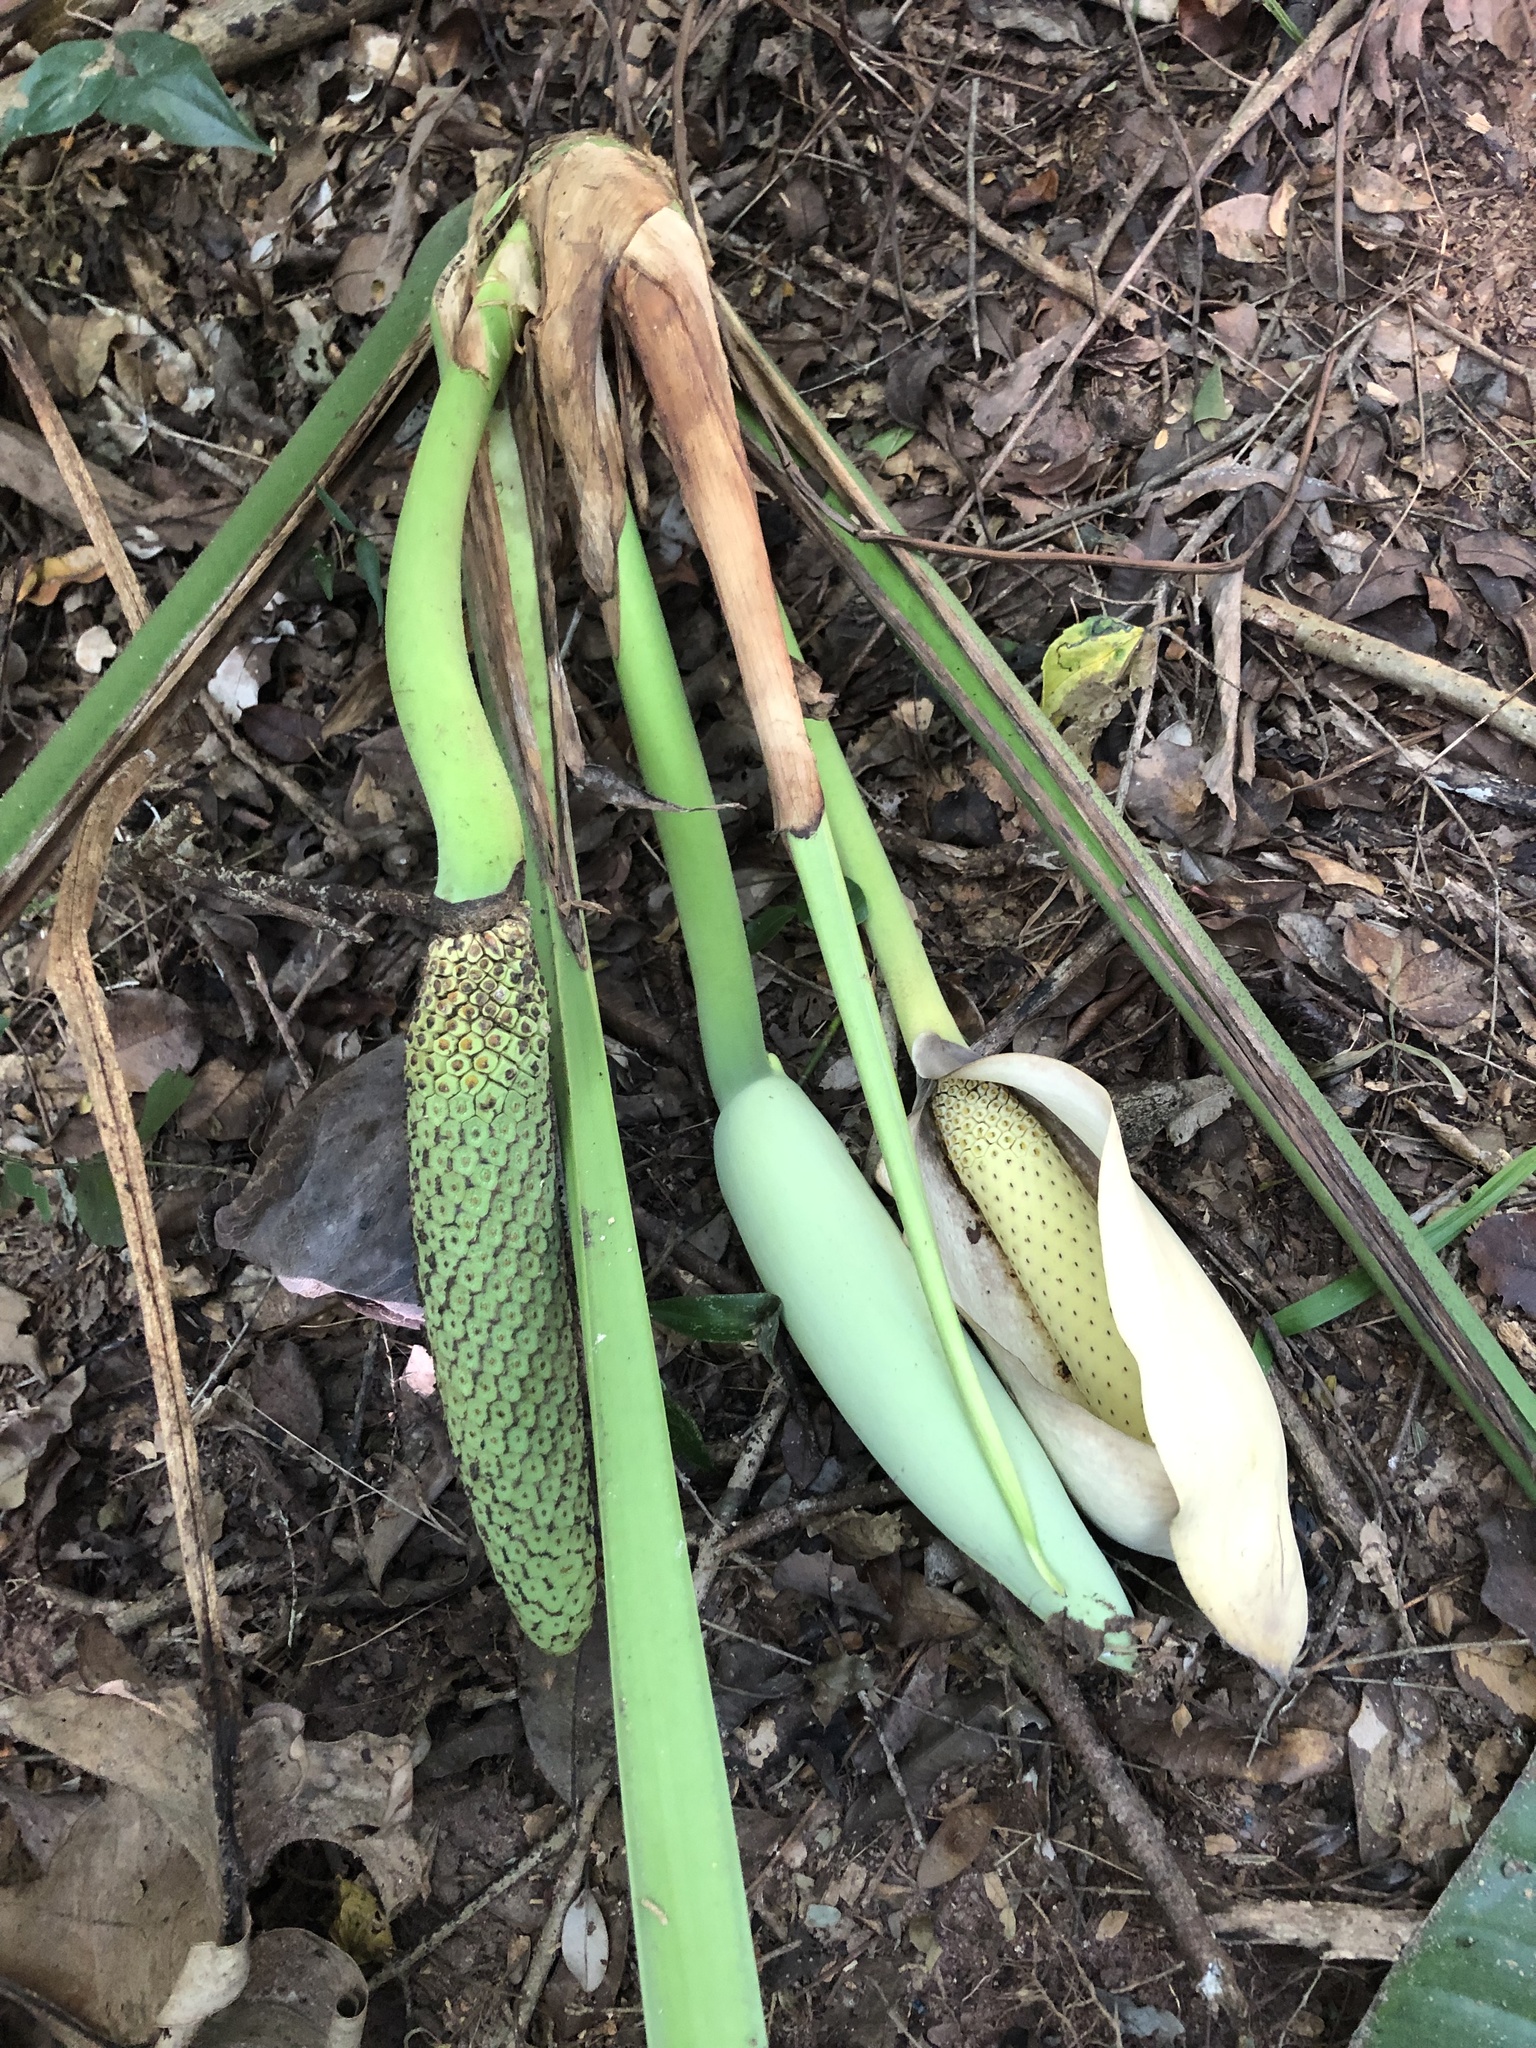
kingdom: Plantae
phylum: Tracheophyta
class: Liliopsida
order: Alismatales
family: Araceae
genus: Monstera
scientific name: Monstera deliciosa
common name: Cut-leaf-philodendron
